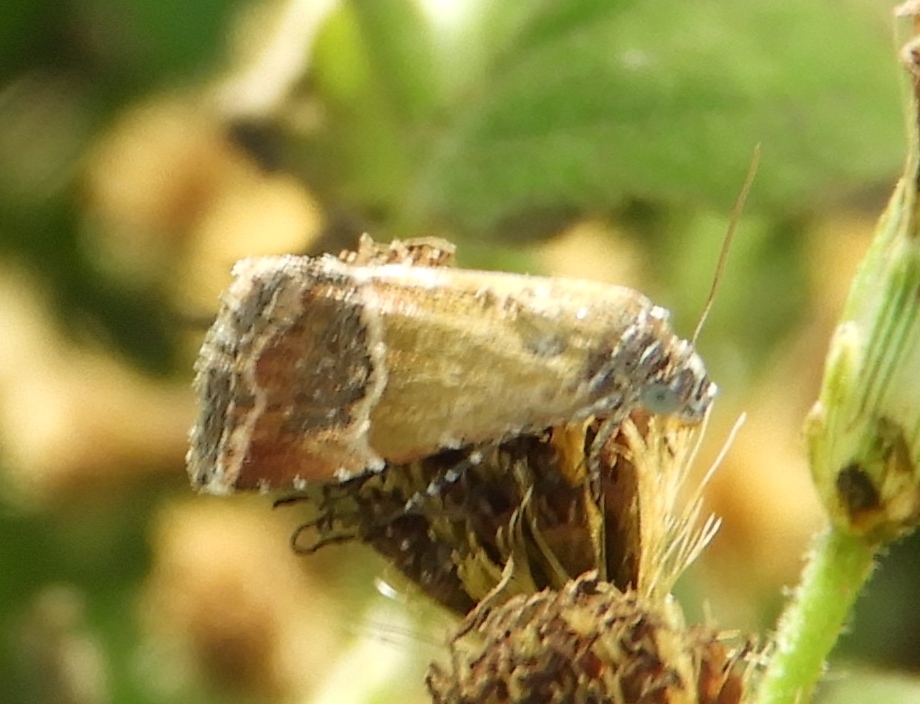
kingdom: Animalia
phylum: Arthropoda
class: Insecta
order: Lepidoptera
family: Noctuidae
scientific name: Noctuidae
